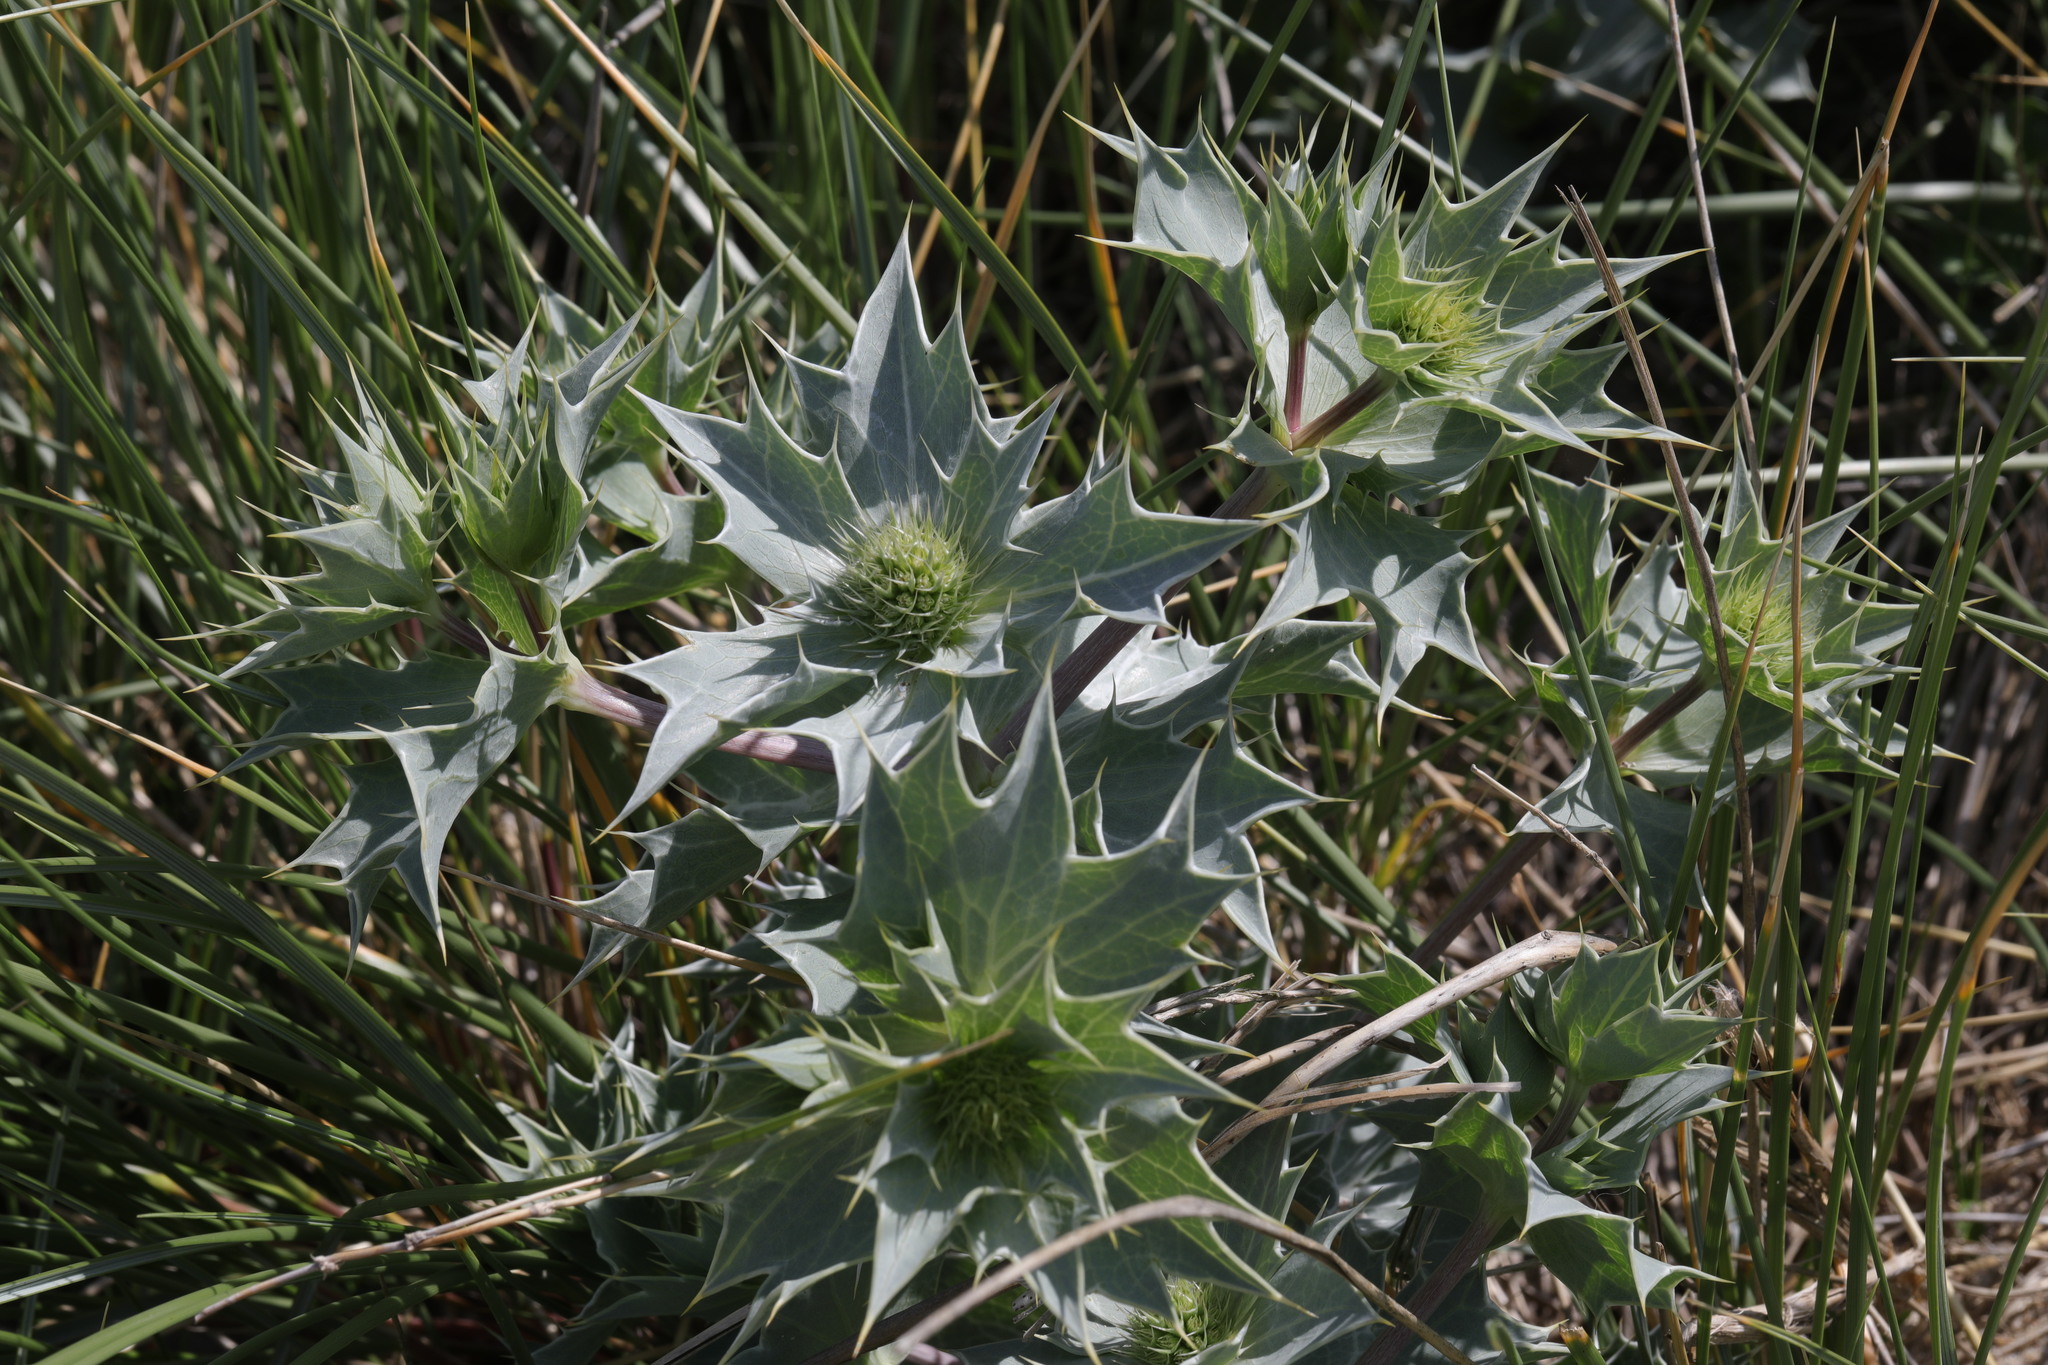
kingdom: Plantae
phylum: Tracheophyta
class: Magnoliopsida
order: Apiales
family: Apiaceae
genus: Eryngium
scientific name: Eryngium maritimum
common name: Sea-holly
